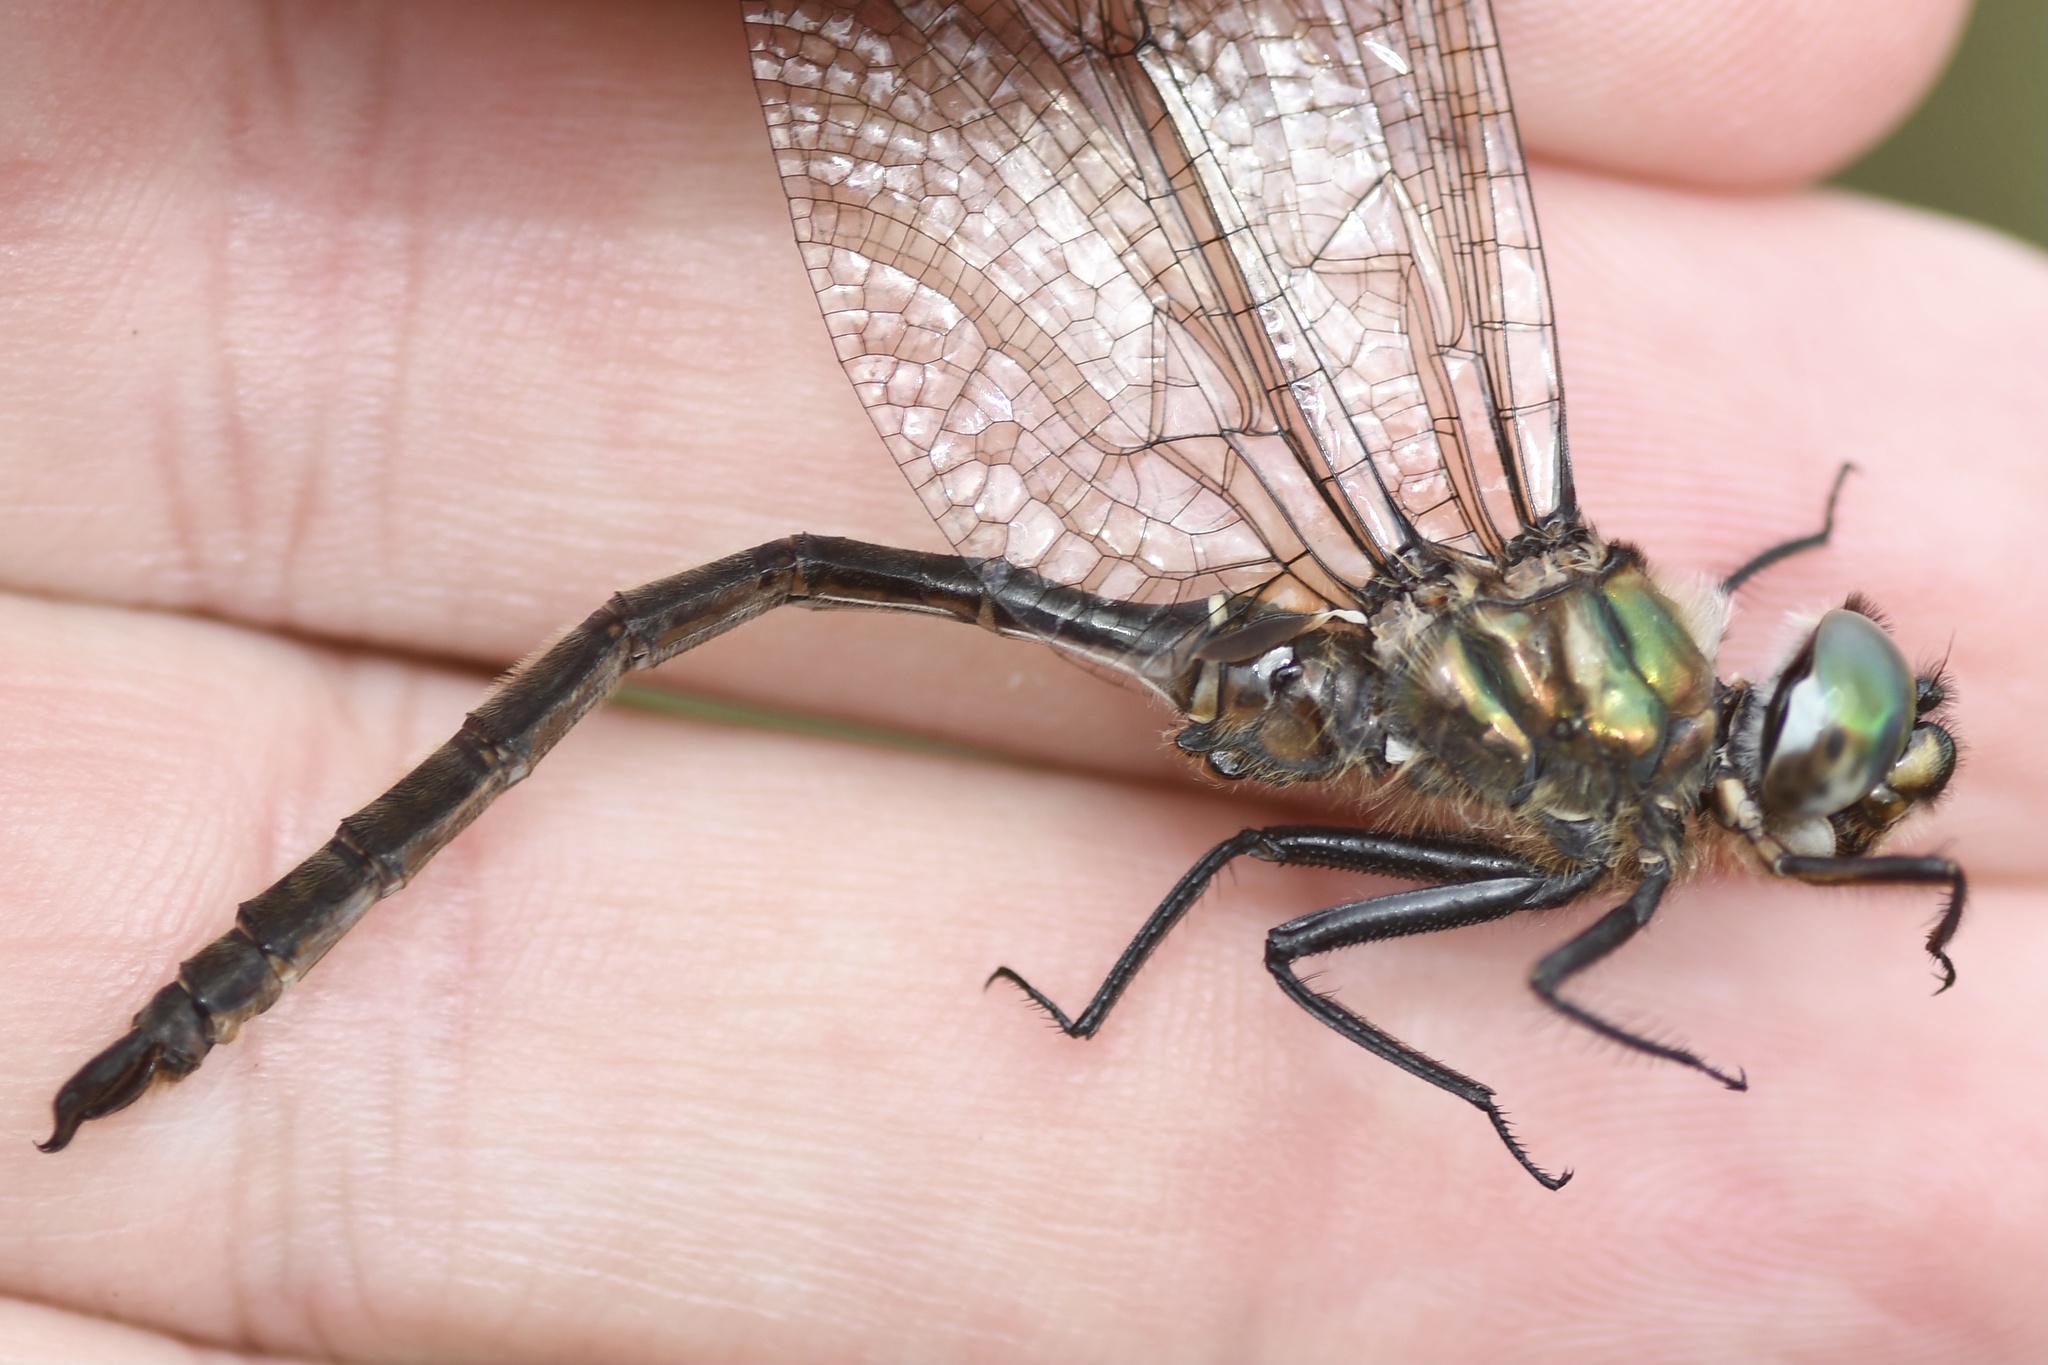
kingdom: Animalia
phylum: Arthropoda
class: Insecta
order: Odonata
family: Corduliidae
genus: Somatochlora
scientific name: Somatochlora brevicincta
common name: Quebec emerald
